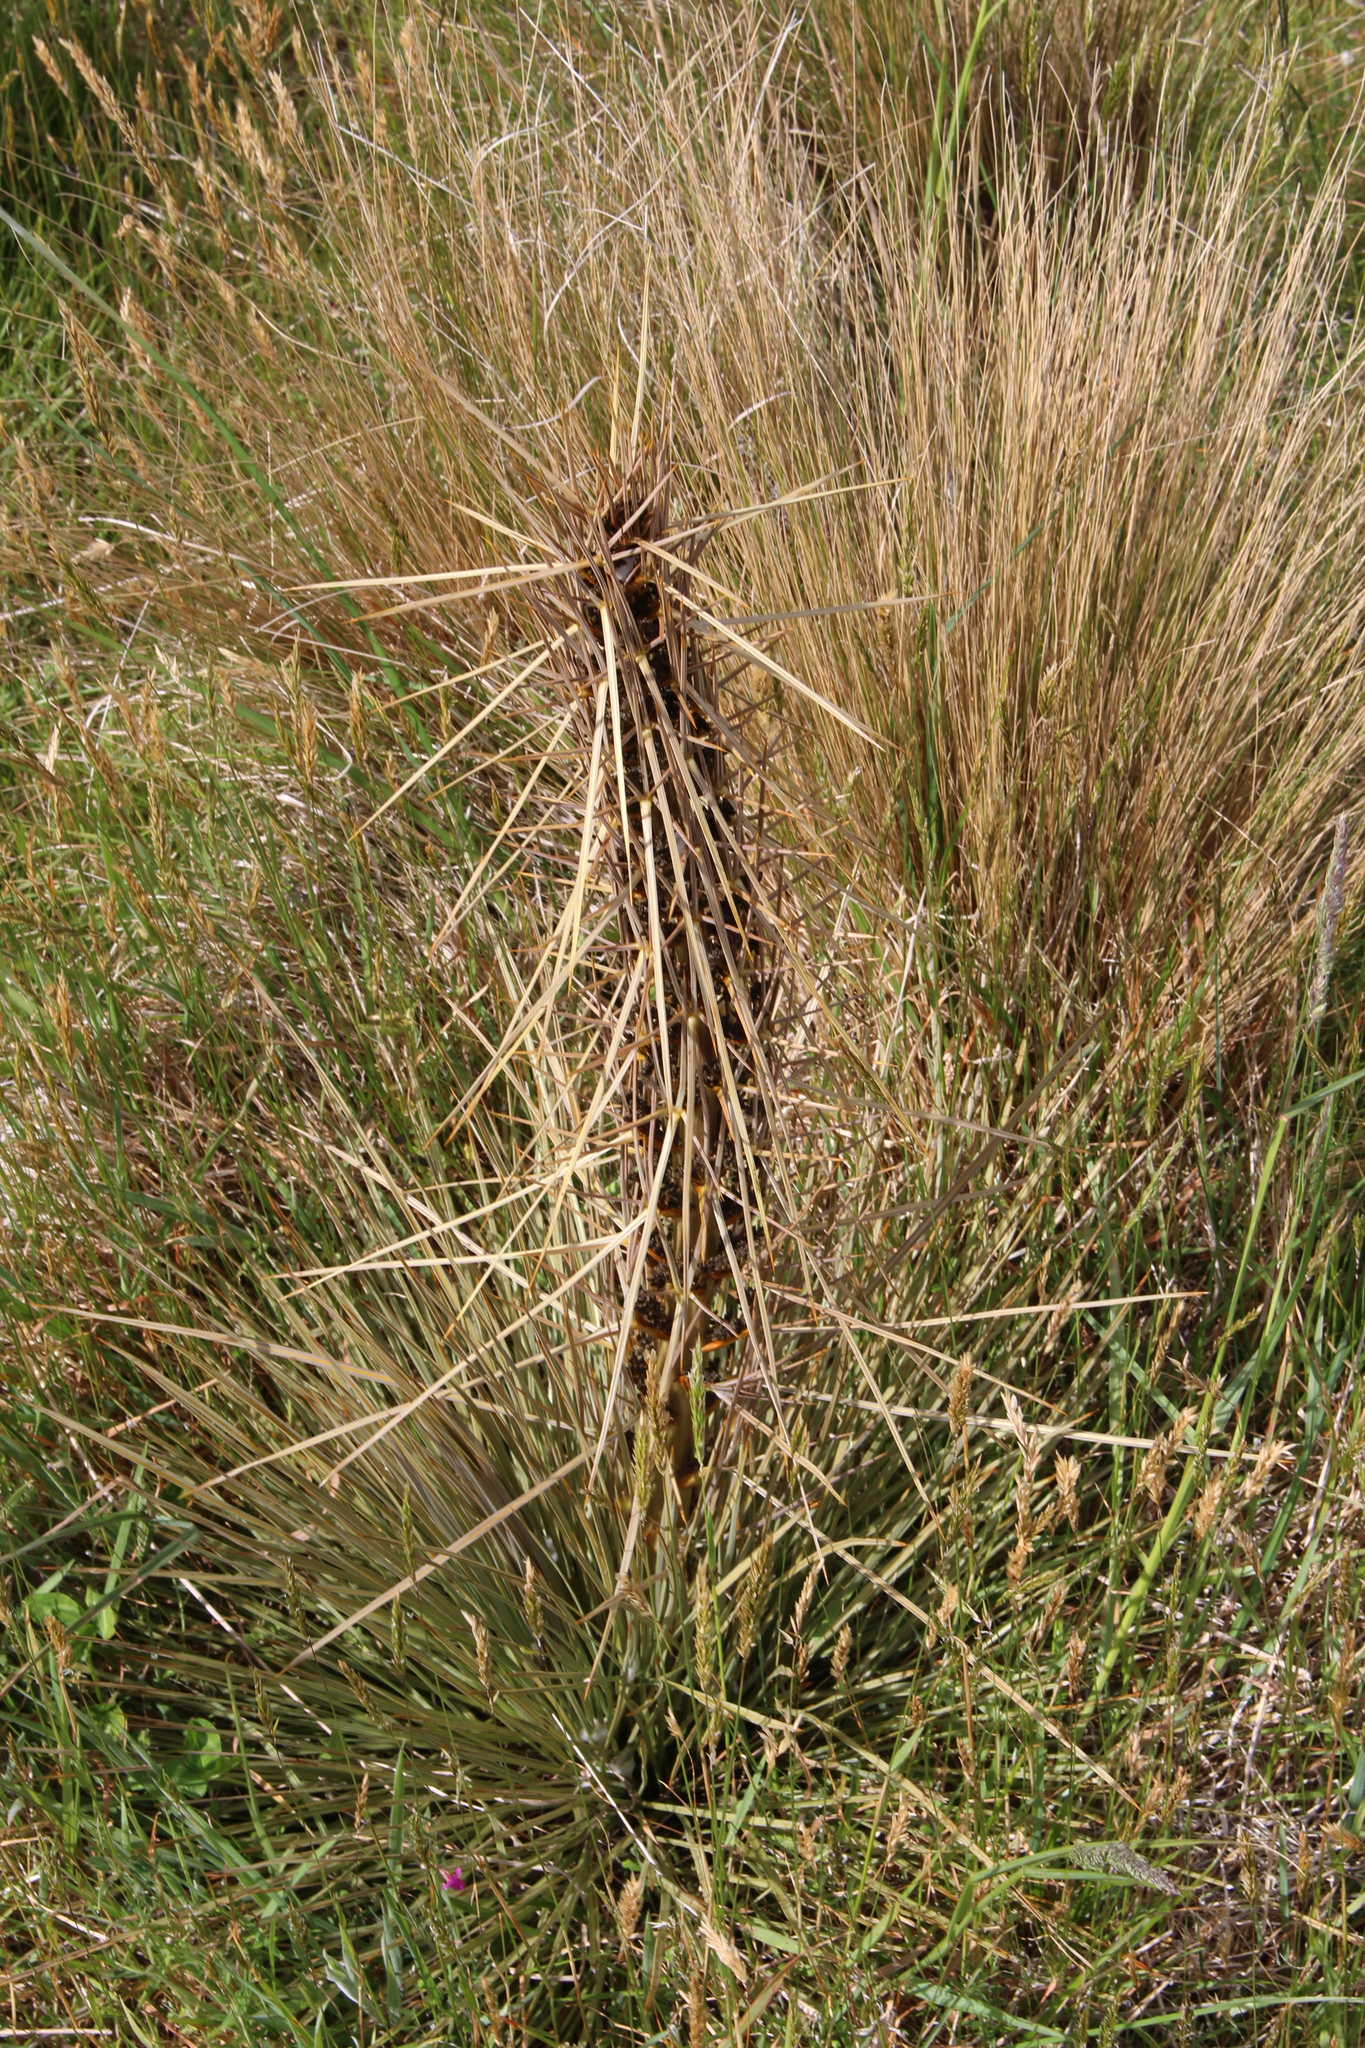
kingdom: Plantae
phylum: Tracheophyta
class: Magnoliopsida
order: Apiales
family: Apiaceae
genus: Aciphylla
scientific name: Aciphylla subflabellata
